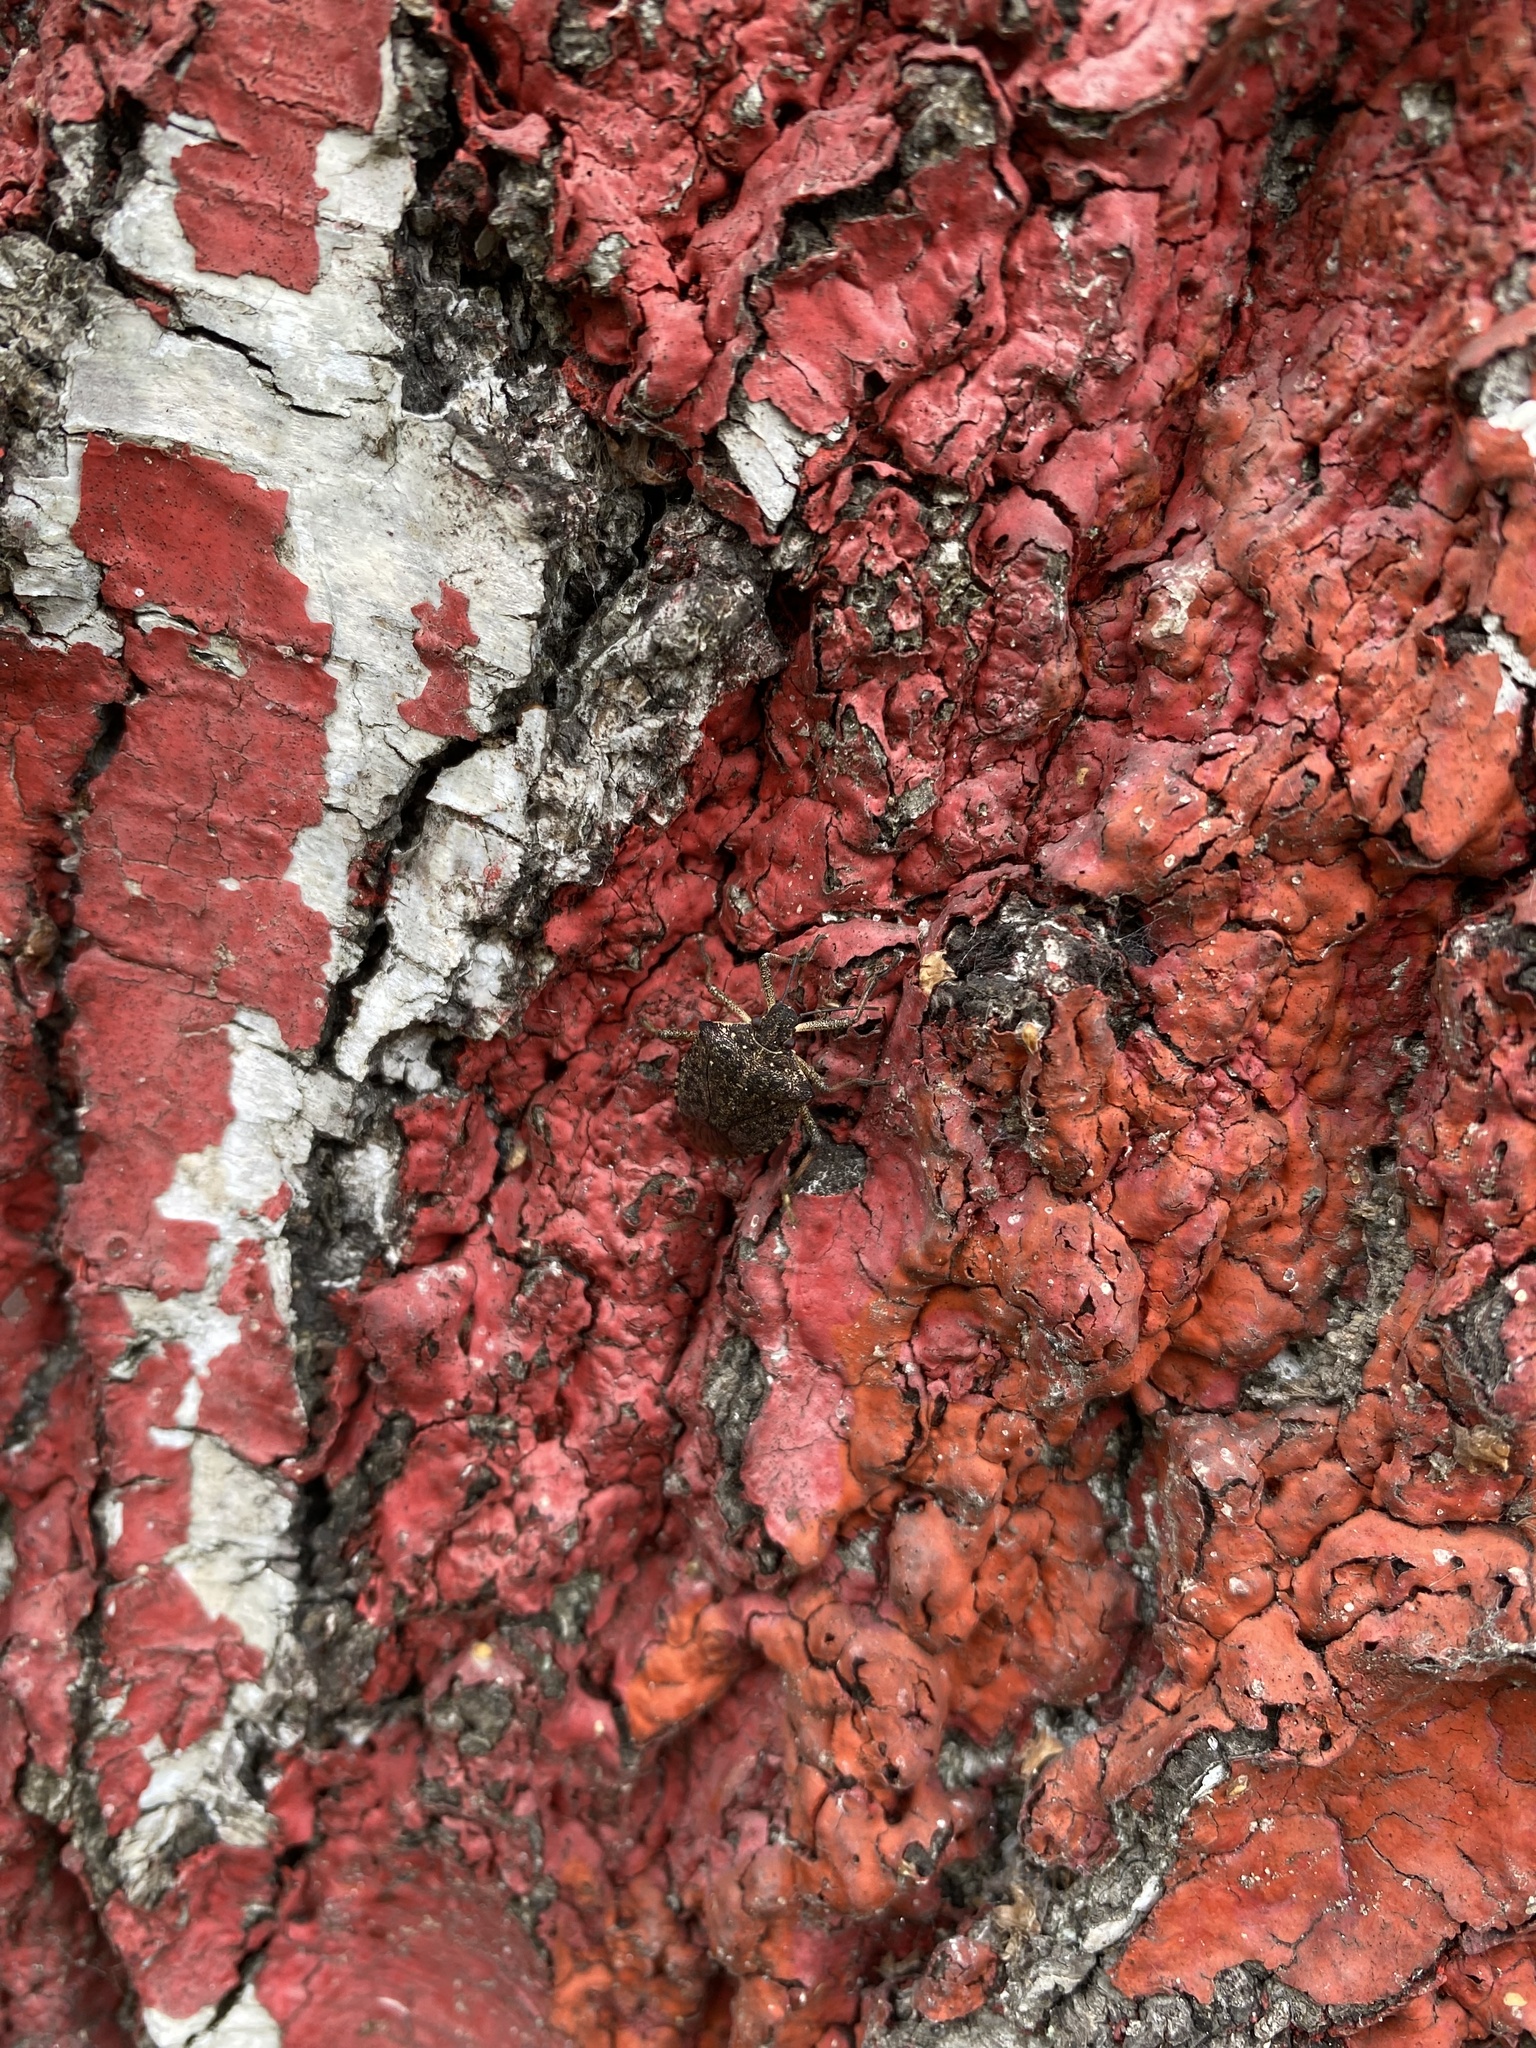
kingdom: Animalia
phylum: Arthropoda
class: Insecta
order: Hemiptera
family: Pentatomidae
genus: Halyomorpha
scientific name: Halyomorpha halys
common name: Brown marmorated stink bug
